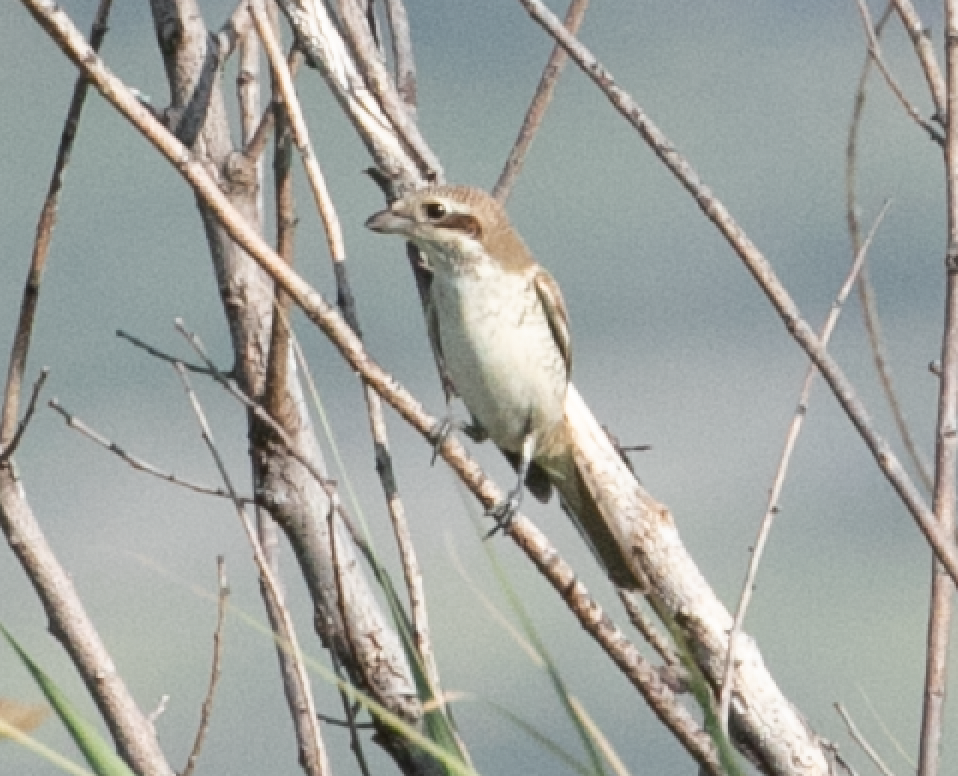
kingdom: Animalia
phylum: Chordata
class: Aves
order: Passeriformes
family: Laniidae
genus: Lanius
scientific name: Lanius collurio
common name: Red-backed shrike
